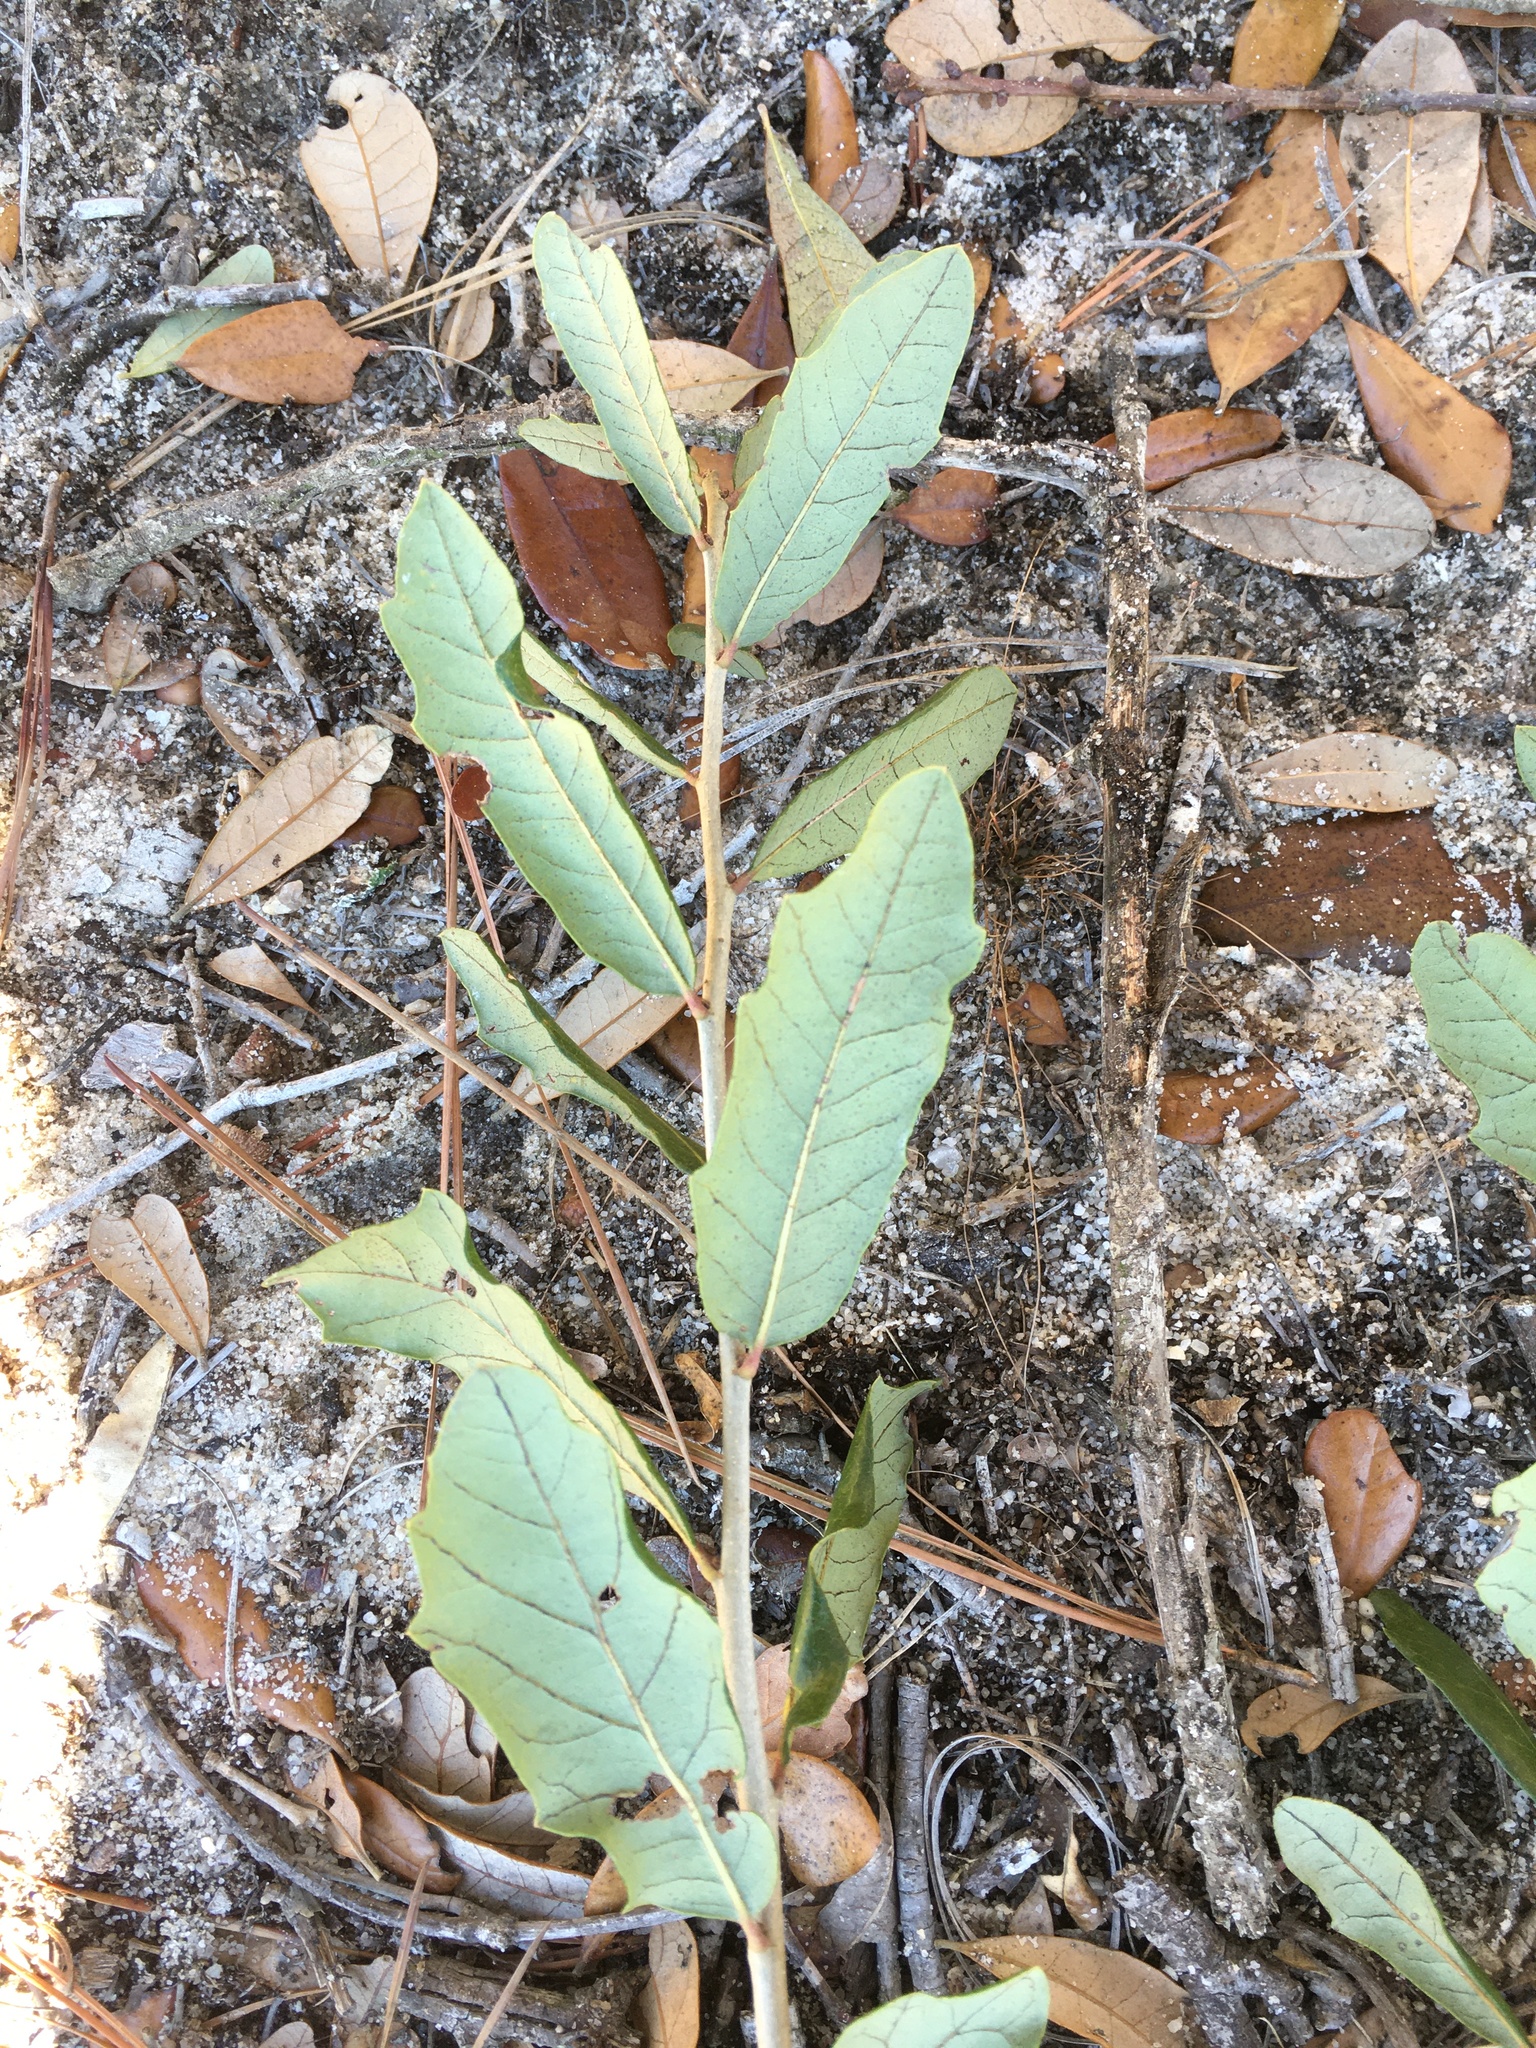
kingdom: Plantae
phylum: Tracheophyta
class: Magnoliopsida
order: Fagales
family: Fagaceae
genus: Quercus
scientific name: Quercus virginiana
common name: Southern live oak
